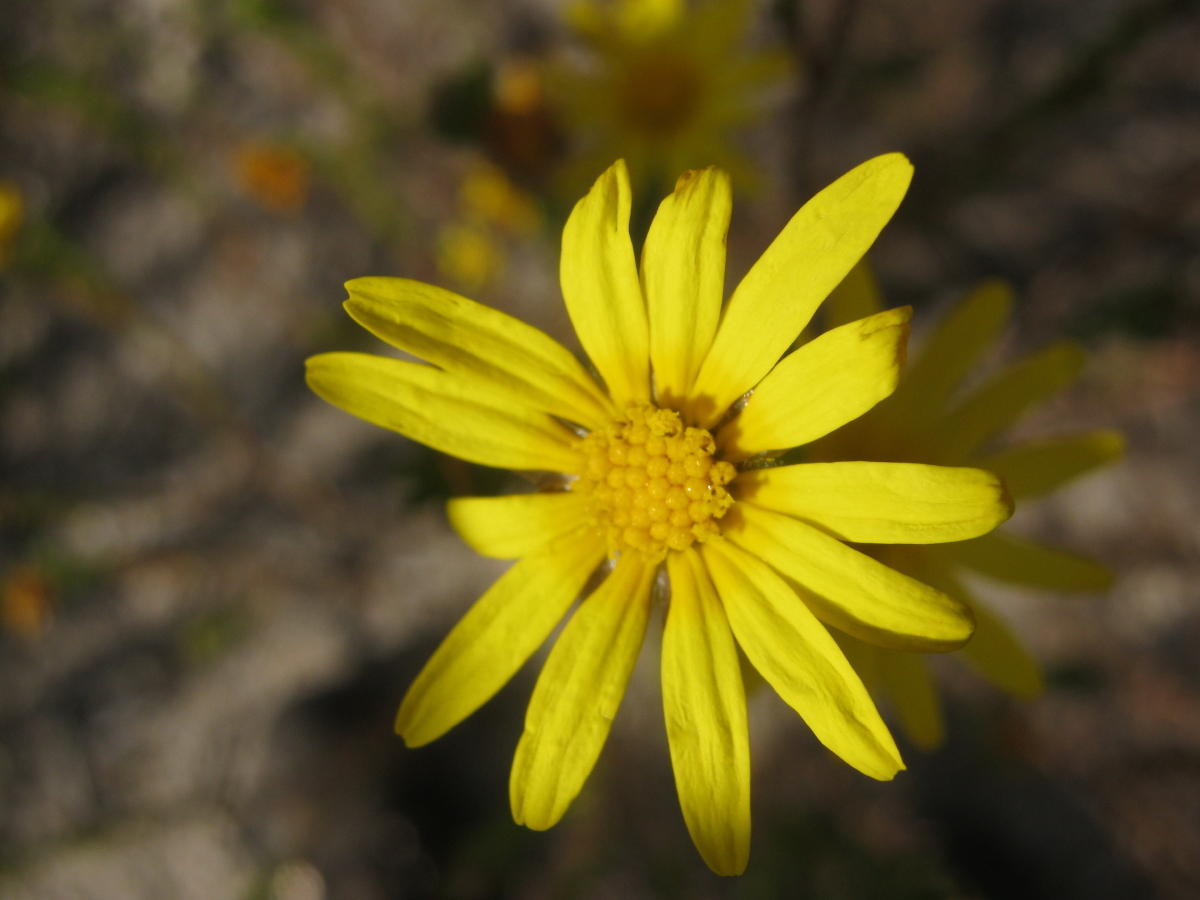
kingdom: Plantae
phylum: Tracheophyta
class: Magnoliopsida
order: Asterales
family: Asteraceae
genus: Ursinia
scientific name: Ursinia trifida
